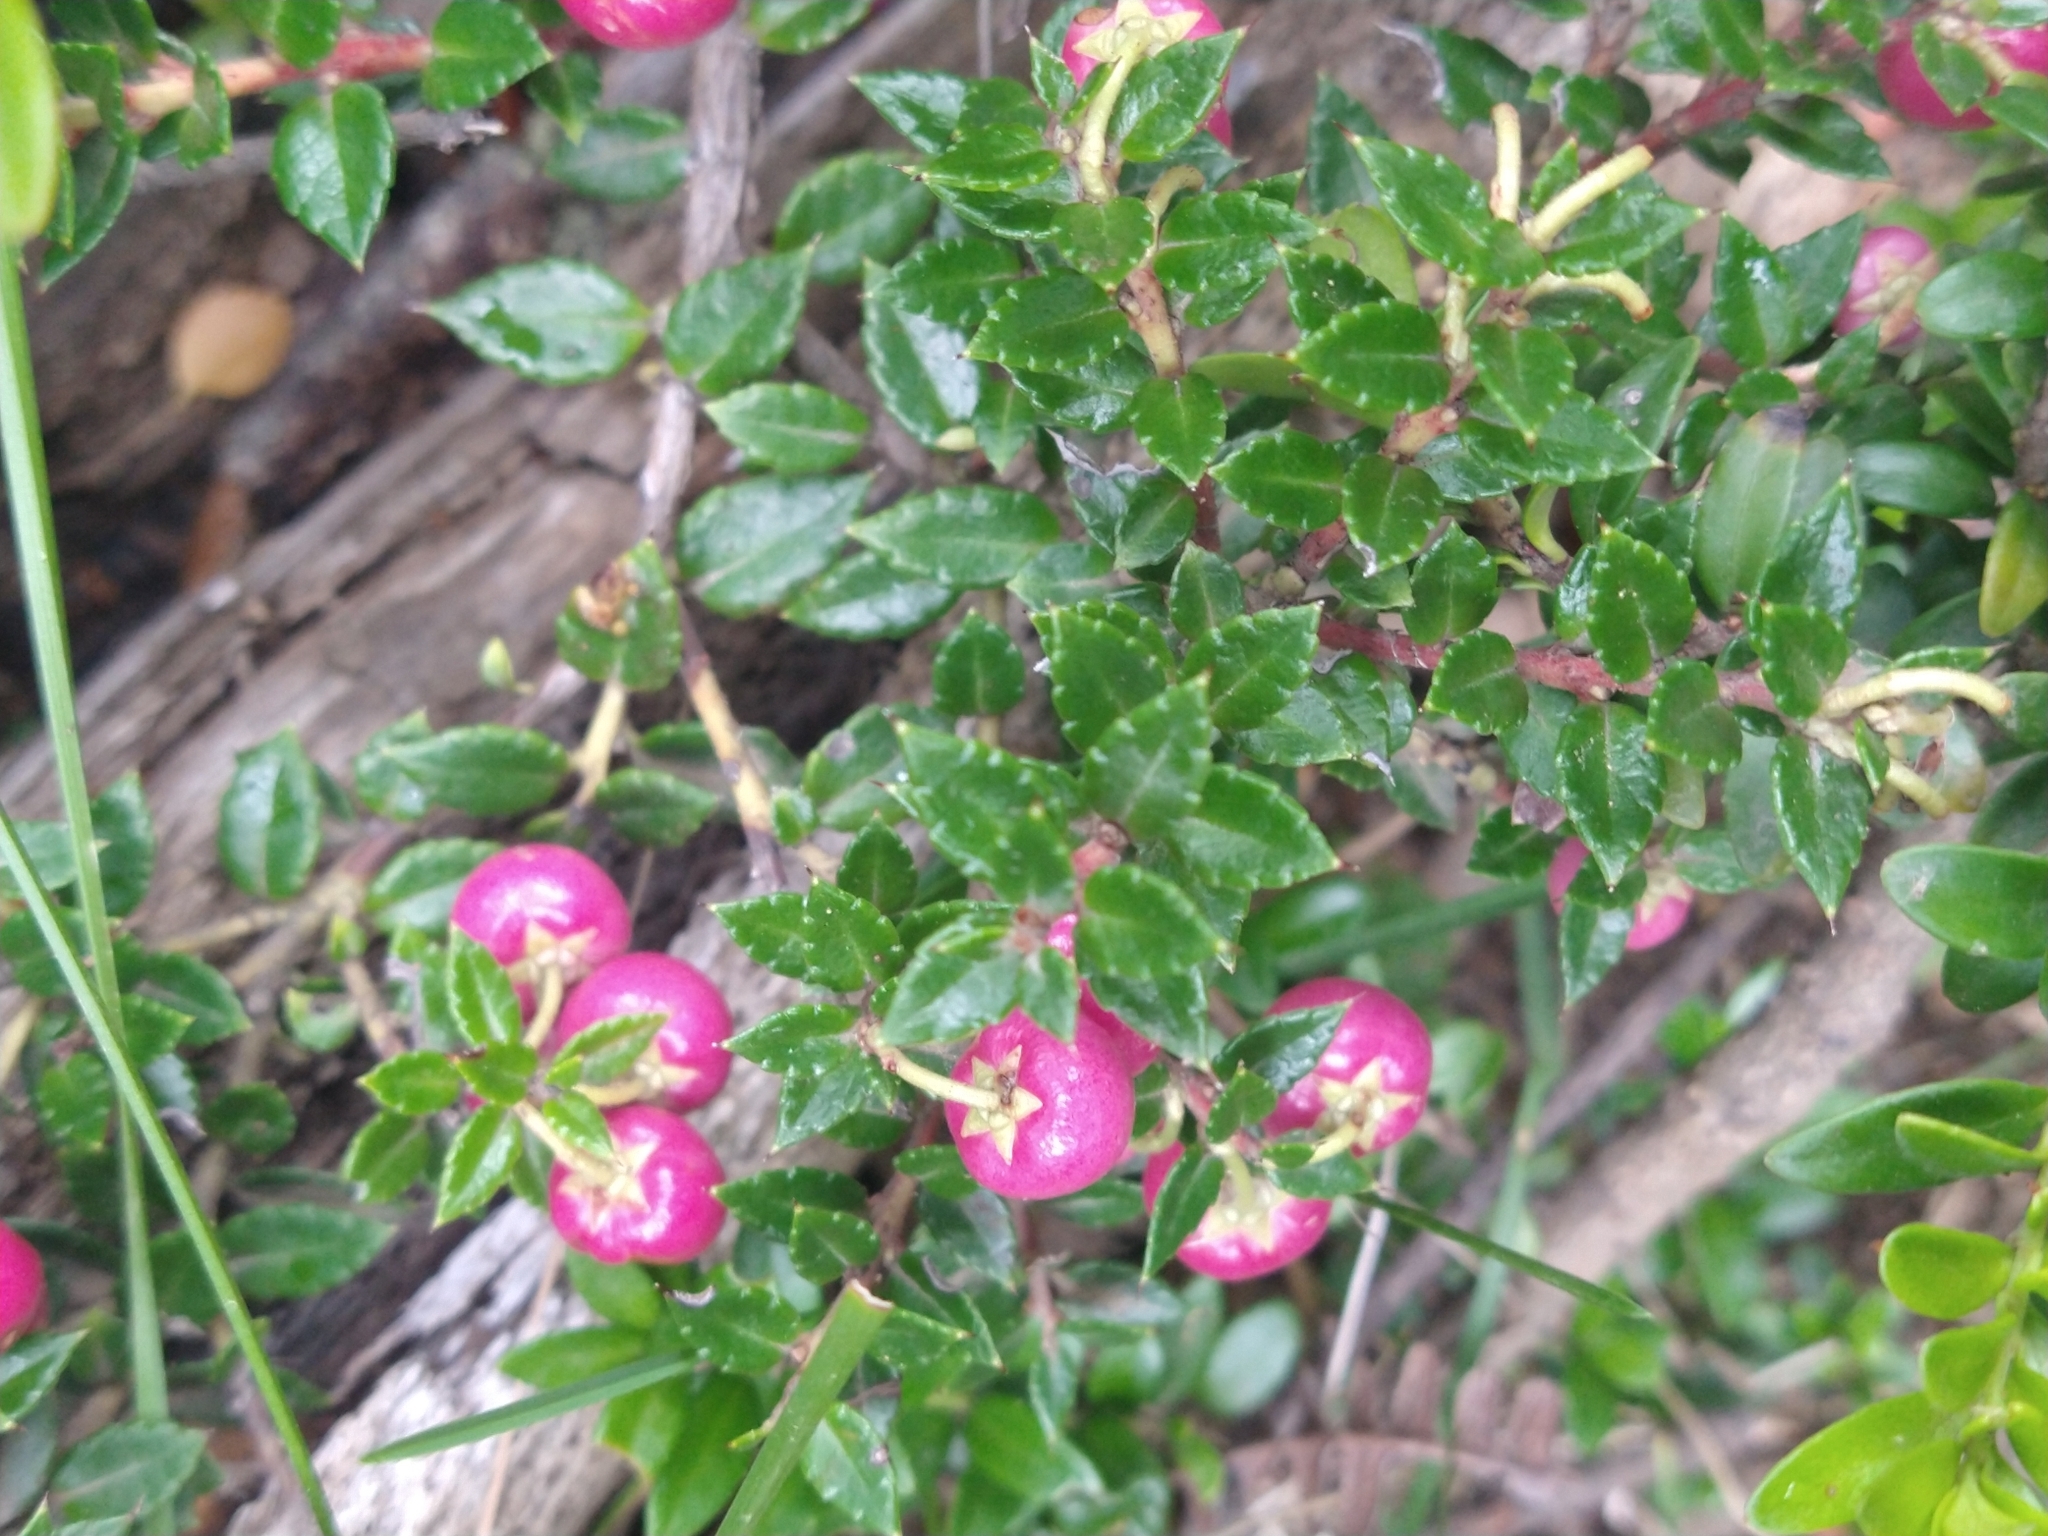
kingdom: Plantae
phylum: Tracheophyta
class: Magnoliopsida
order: Ericales
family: Ericaceae
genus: Gaultheria
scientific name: Gaultheria mucronata
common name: Prickly heath
